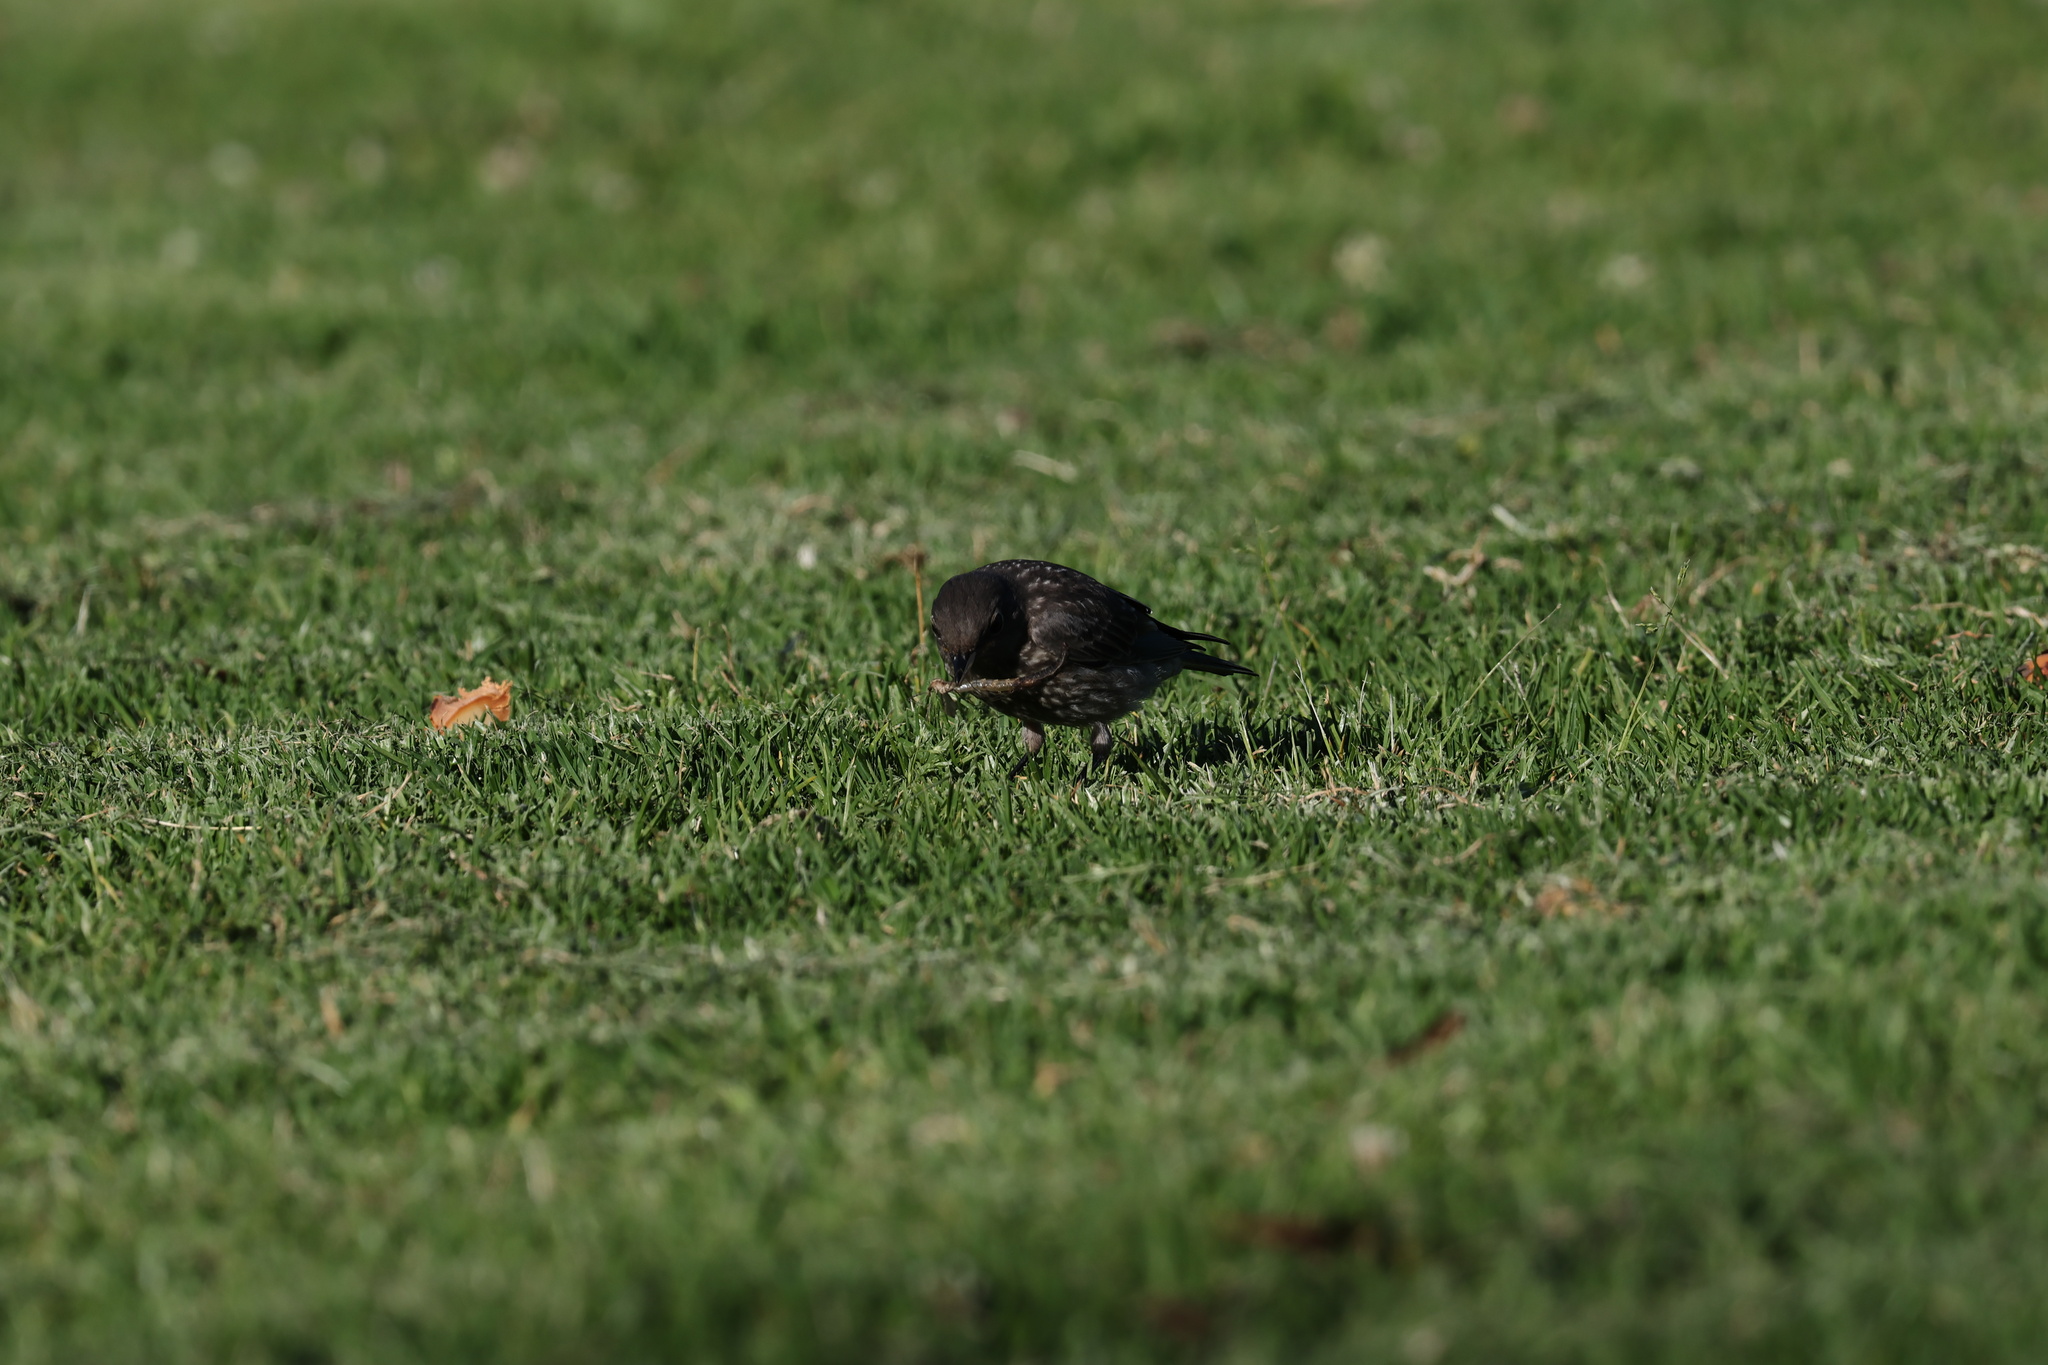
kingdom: Animalia
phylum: Chordata
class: Aves
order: Passeriformes
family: Turdidae
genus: Sialia
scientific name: Sialia mexicana
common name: Western bluebird
